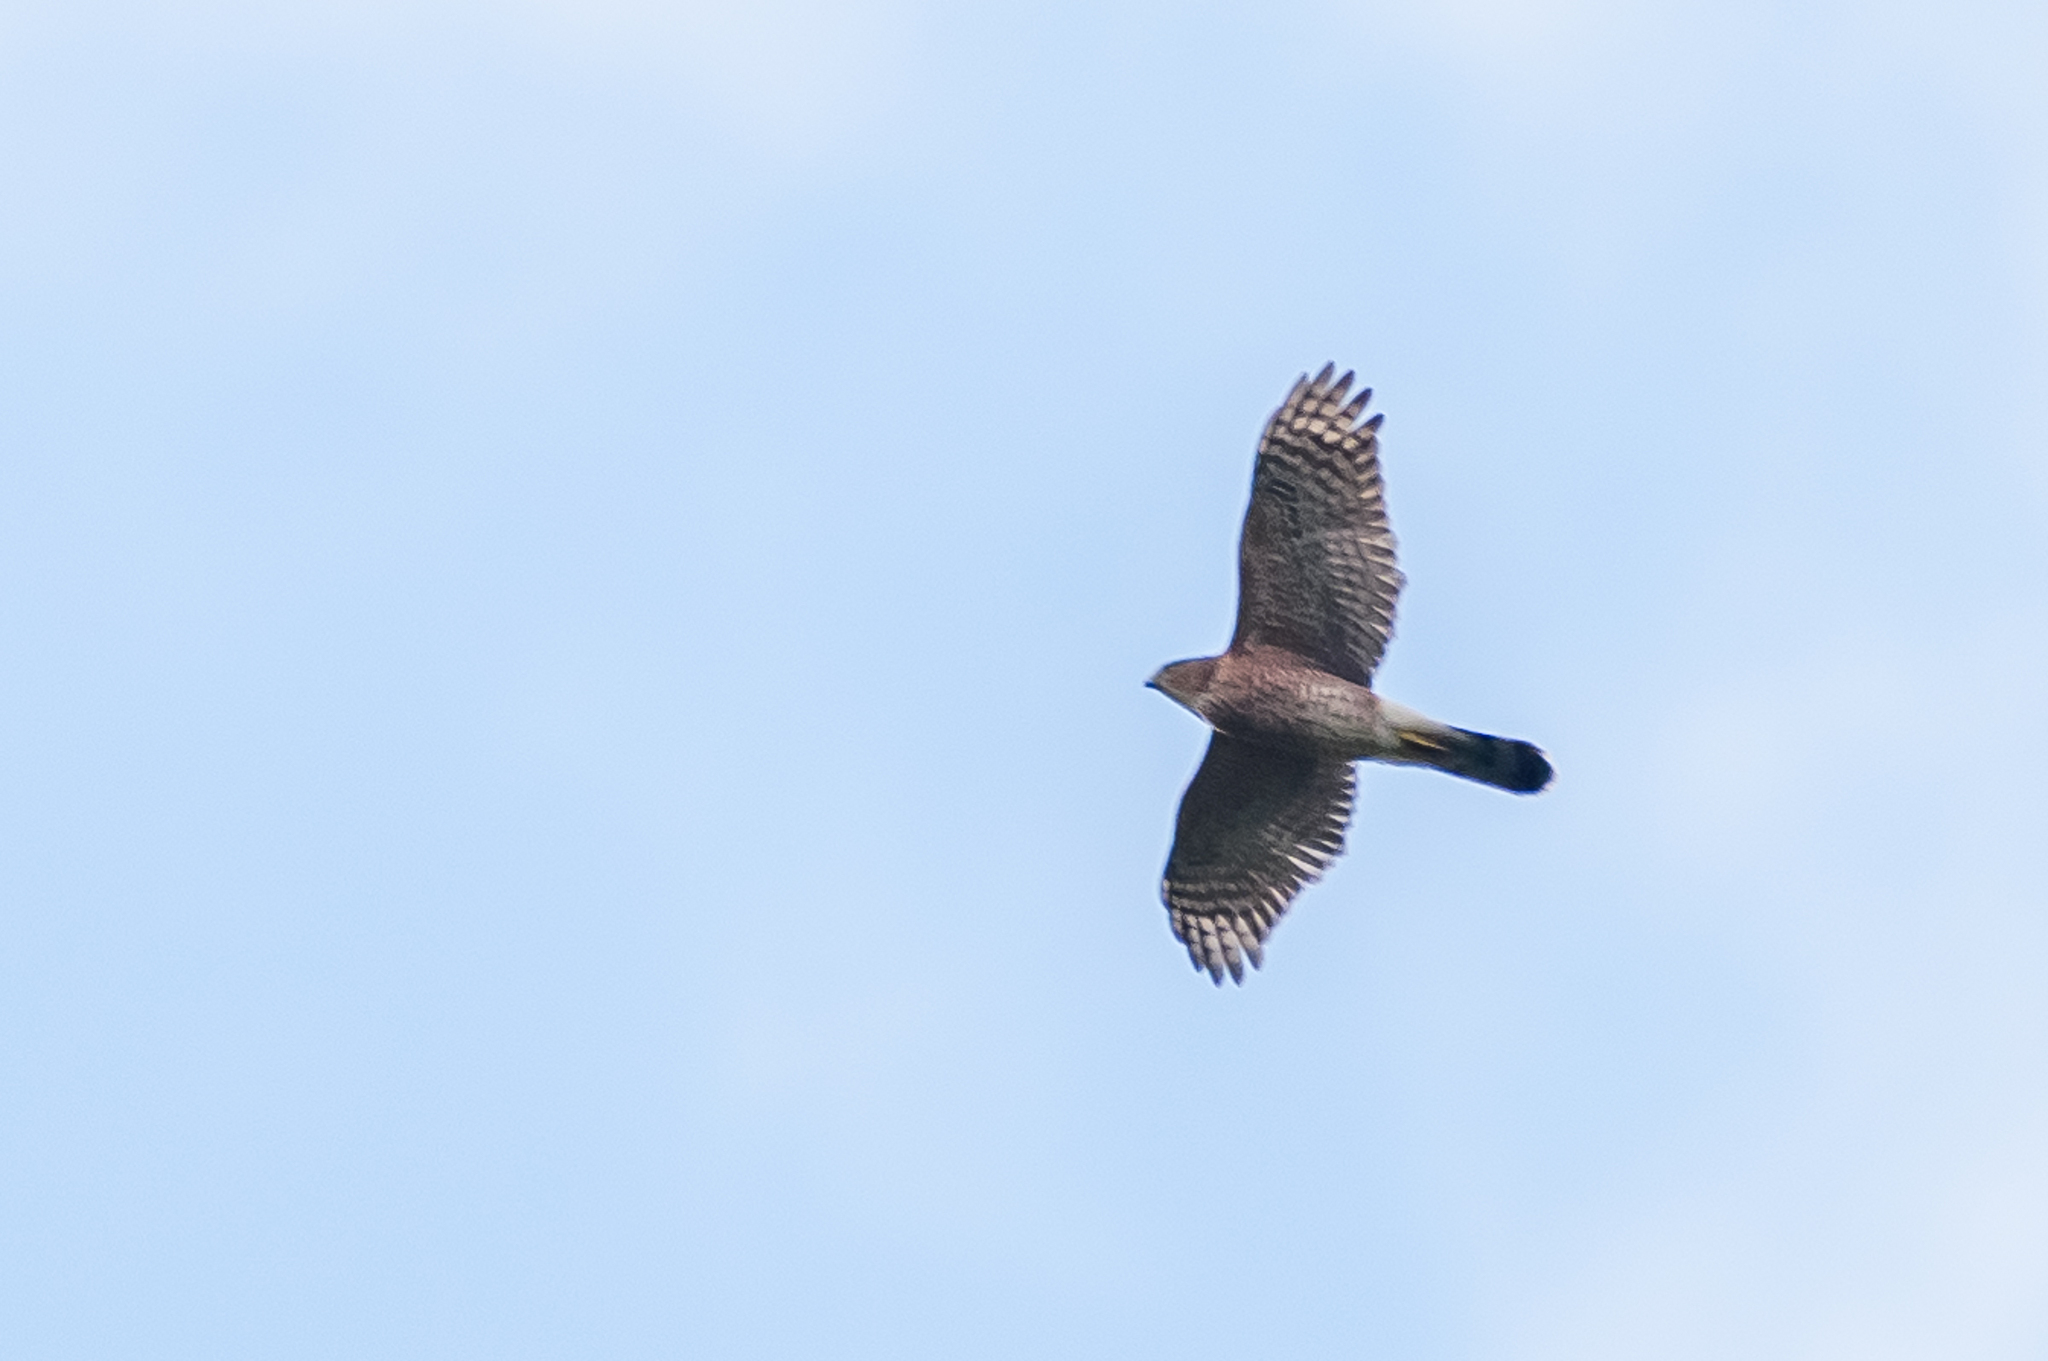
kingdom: Animalia
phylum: Chordata
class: Aves
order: Accipitriformes
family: Accipitridae
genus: Accipiter
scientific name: Accipiter cooperii
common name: Cooper's hawk
